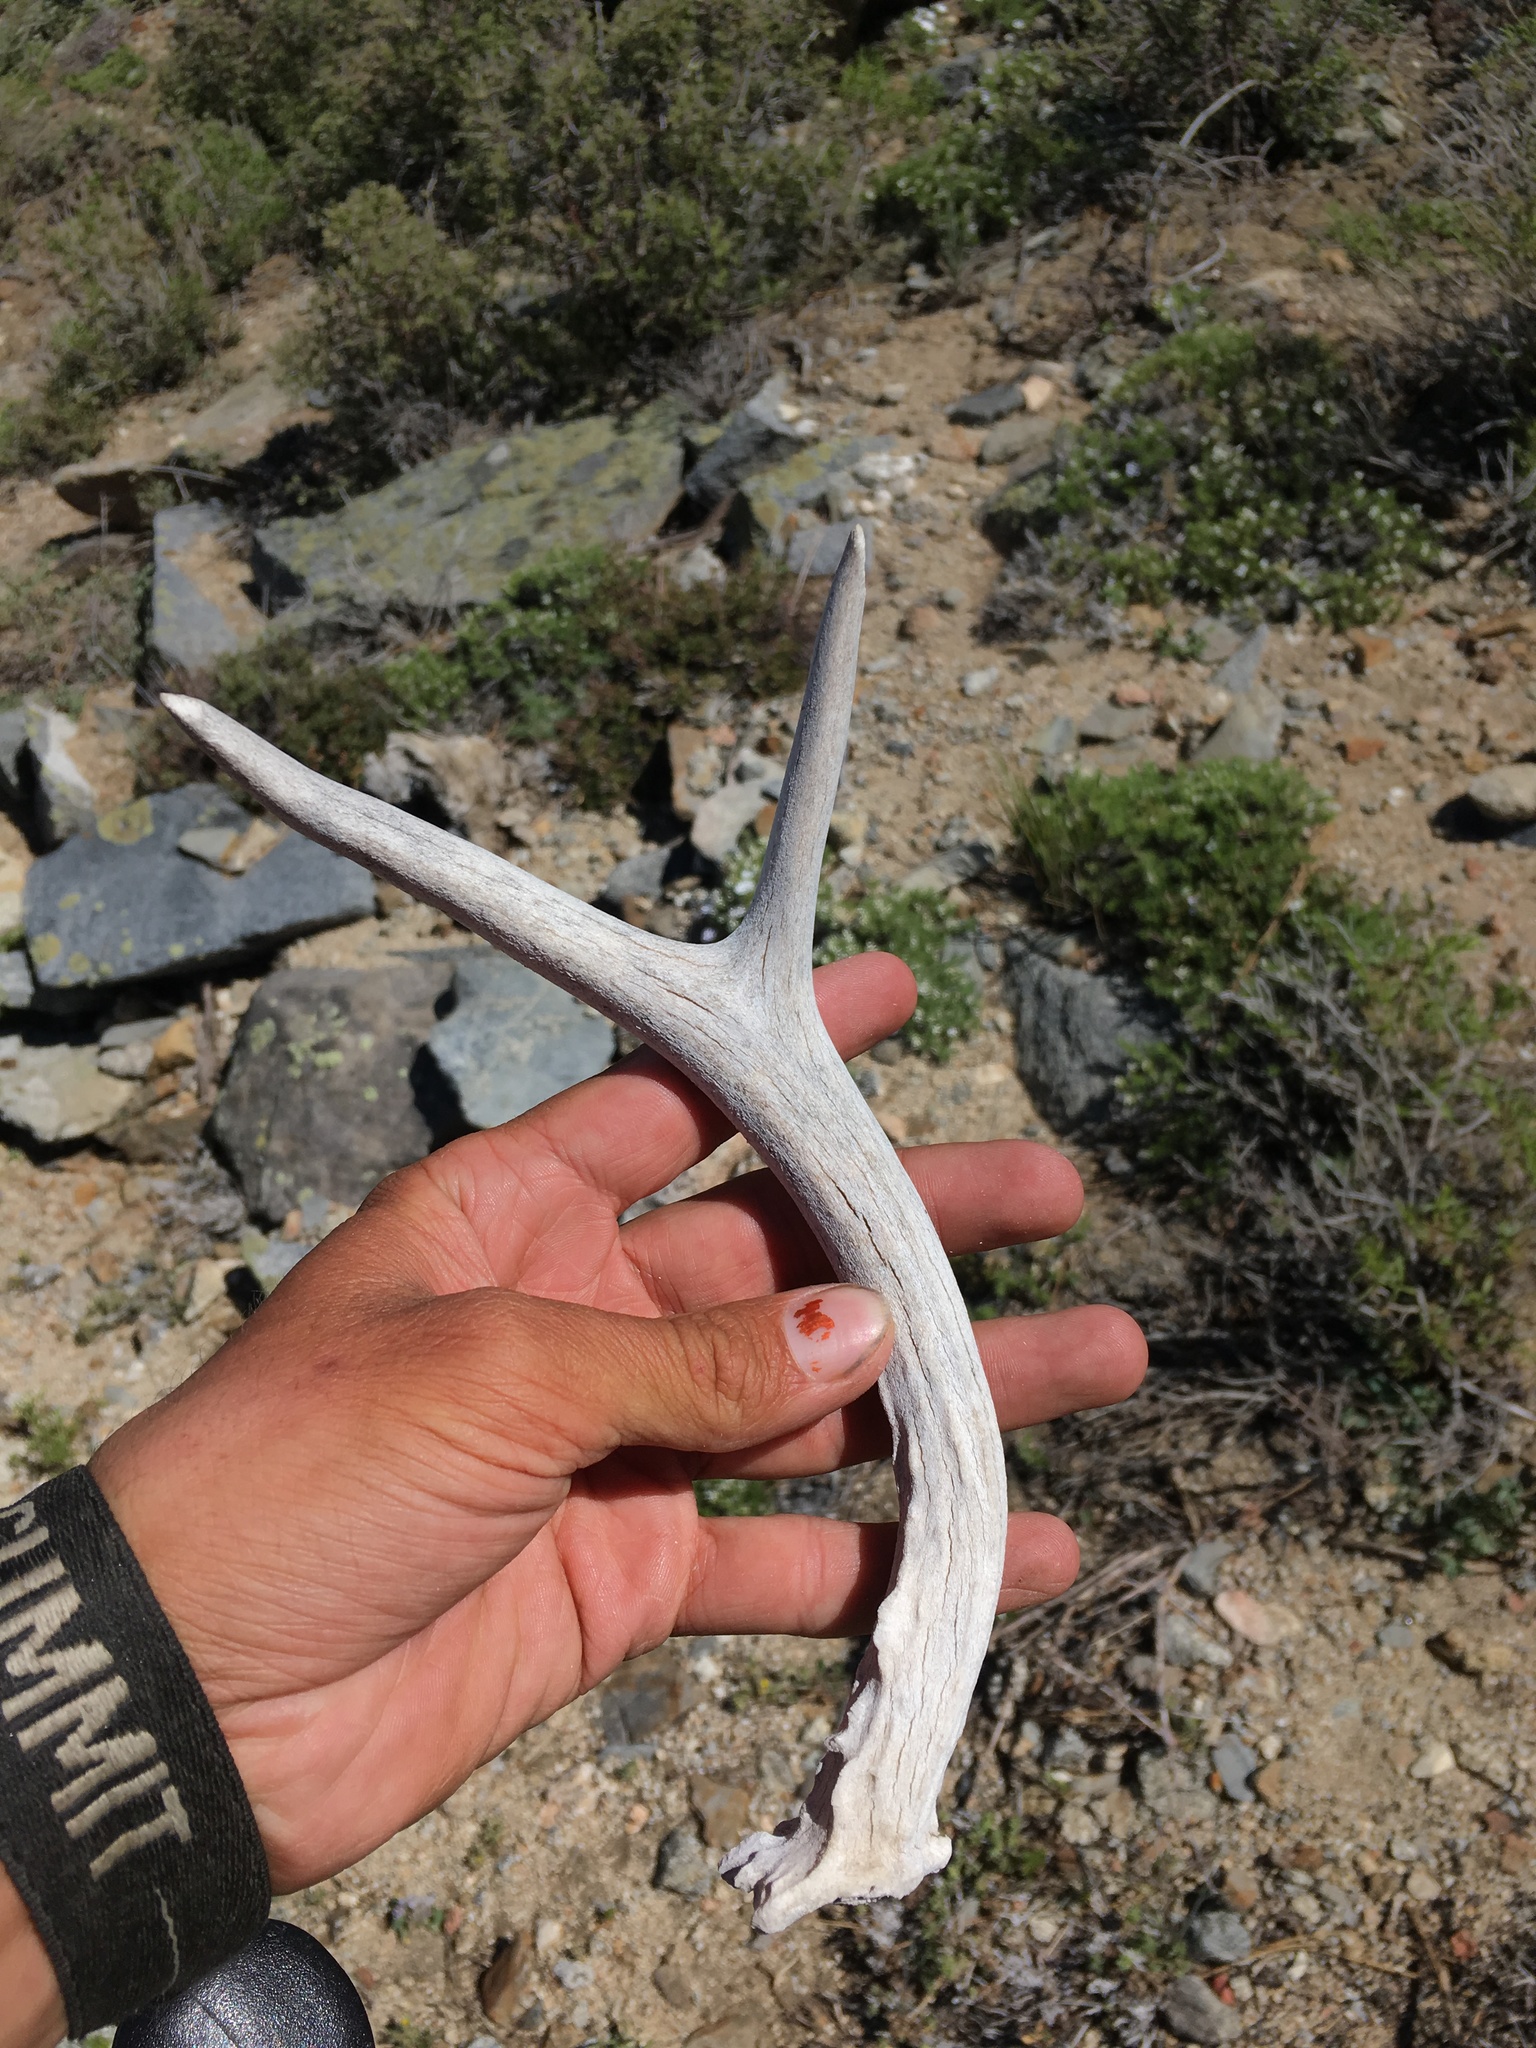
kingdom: Animalia
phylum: Chordata
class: Mammalia
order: Artiodactyla
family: Cervidae
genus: Odocoileus
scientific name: Odocoileus hemionus
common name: Mule deer
